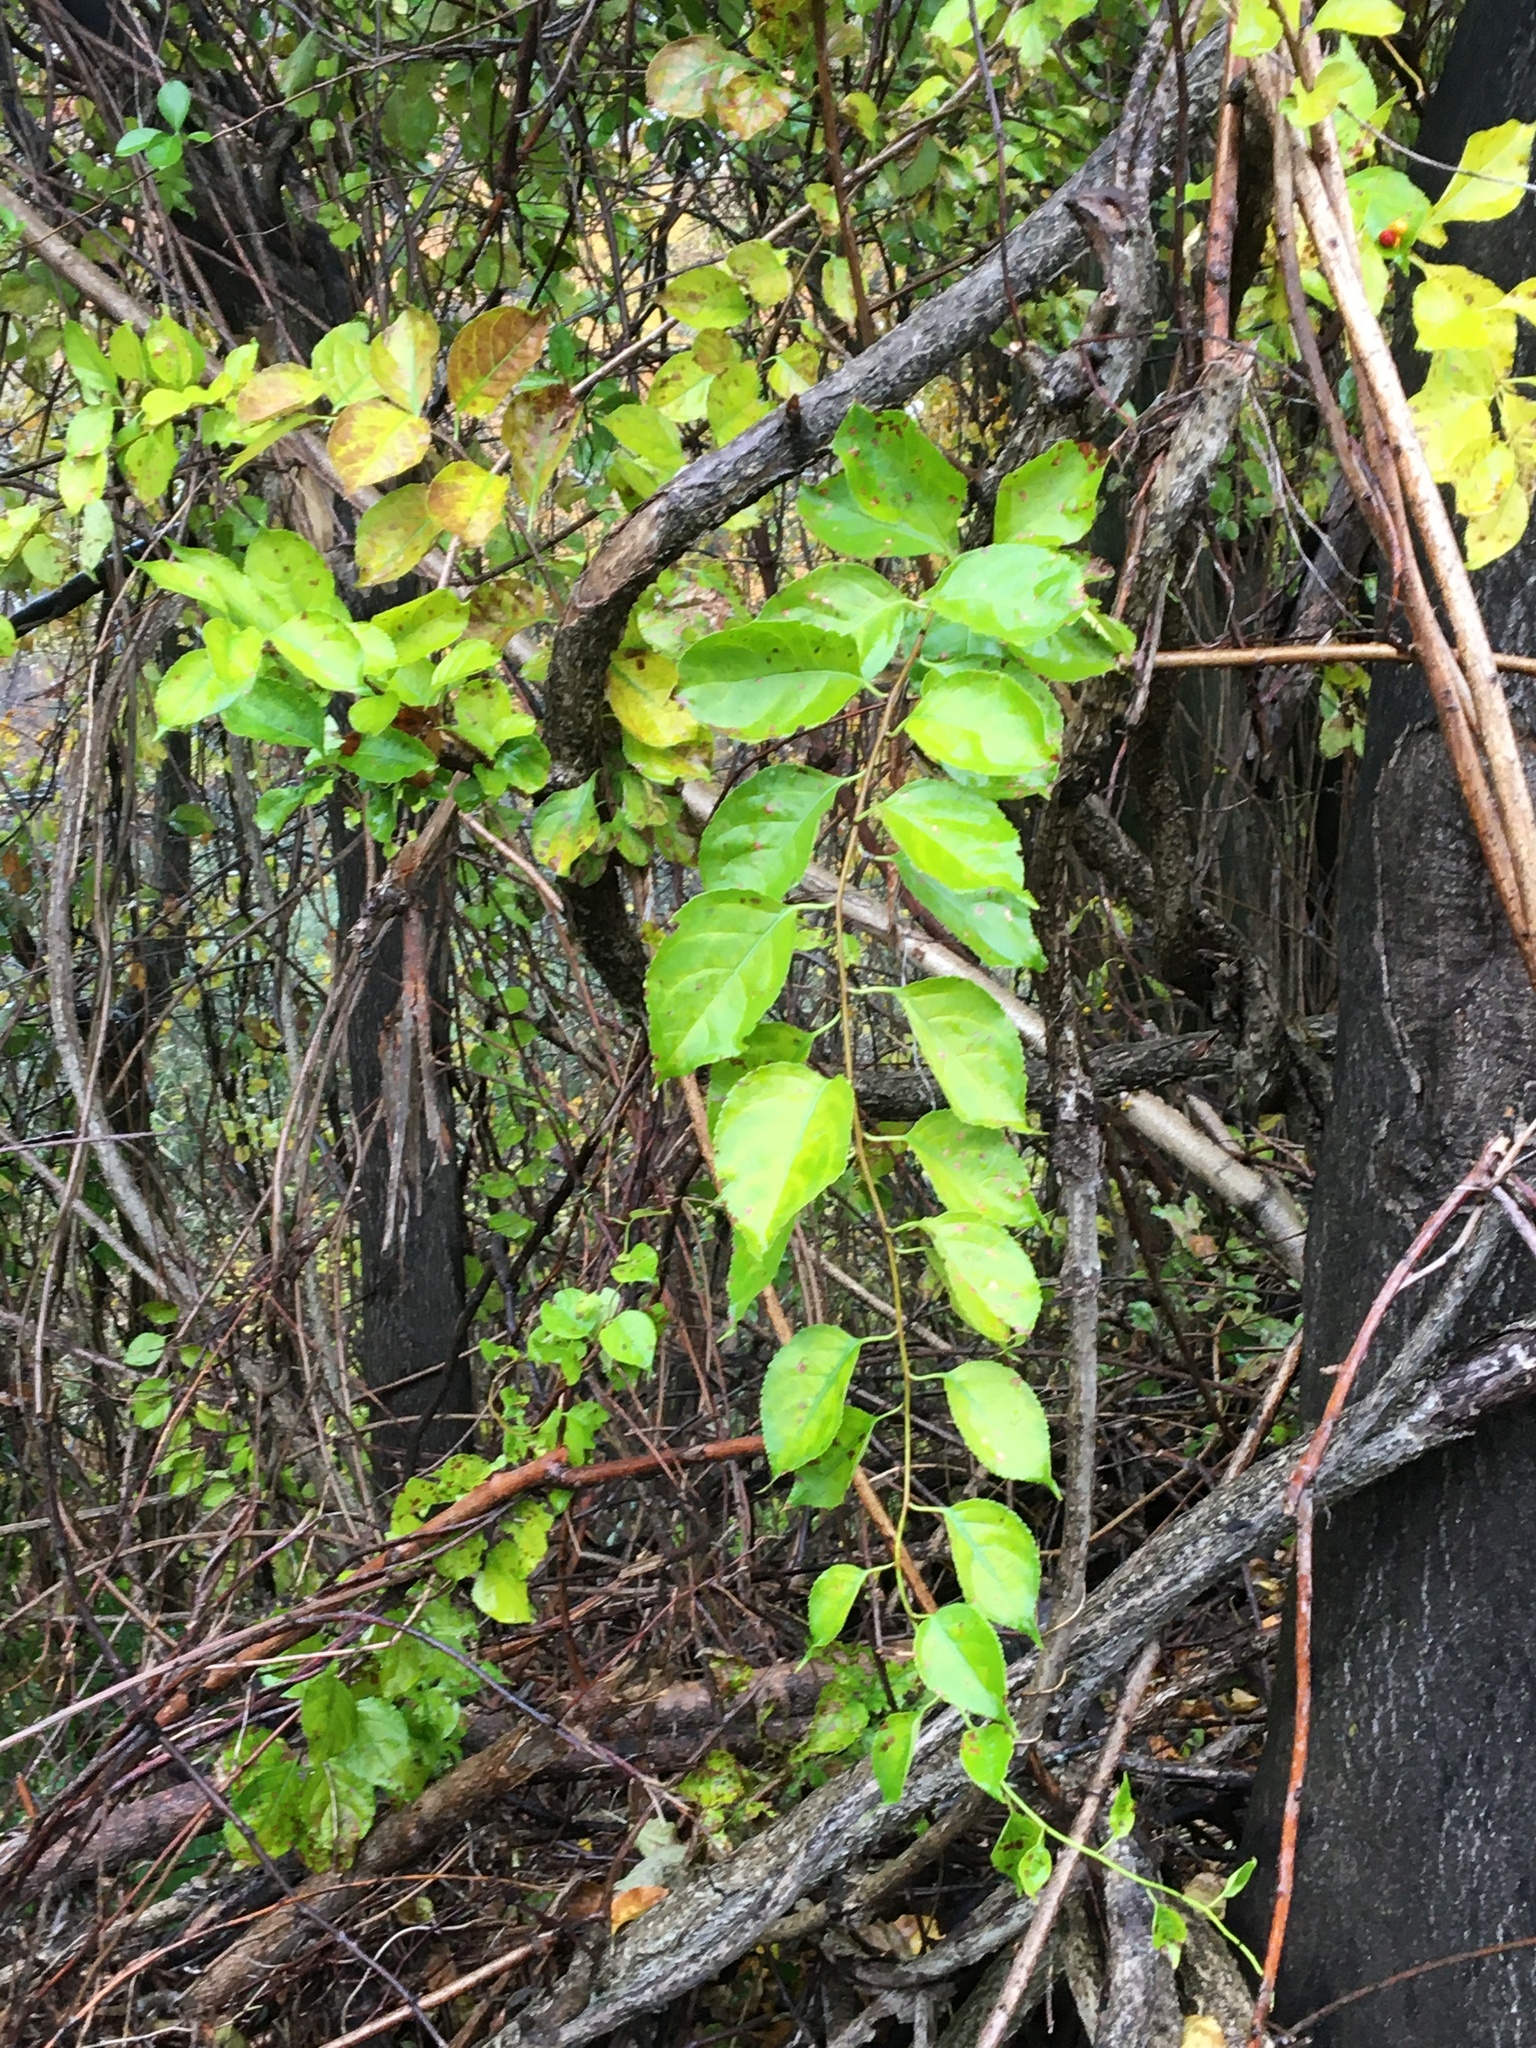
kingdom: Plantae
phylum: Tracheophyta
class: Magnoliopsida
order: Celastrales
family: Celastraceae
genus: Celastrus
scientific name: Celastrus orbiculatus
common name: Oriental bittersweet
